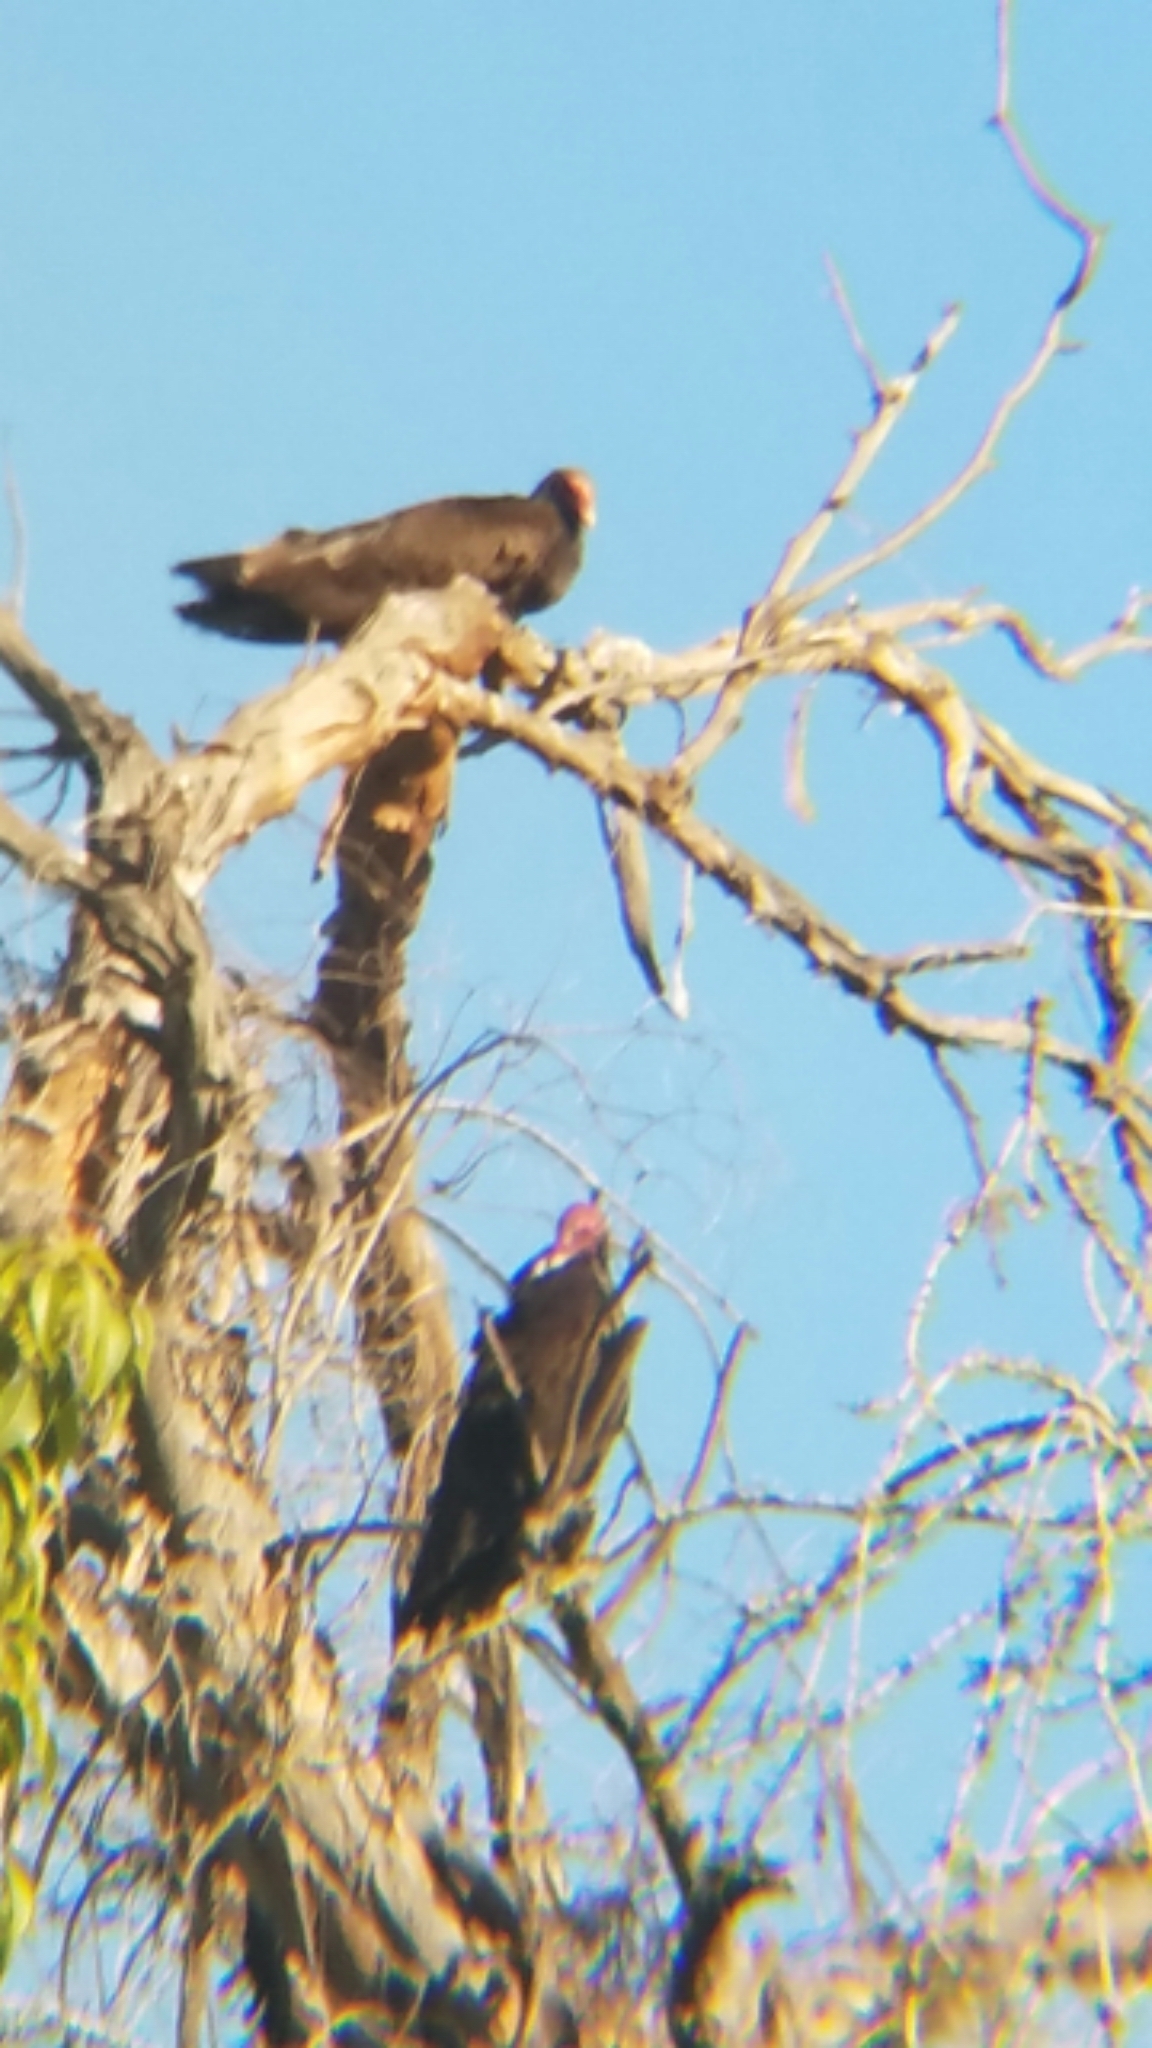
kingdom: Animalia
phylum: Chordata
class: Aves
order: Accipitriformes
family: Cathartidae
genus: Cathartes
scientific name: Cathartes aura
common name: Turkey vulture
